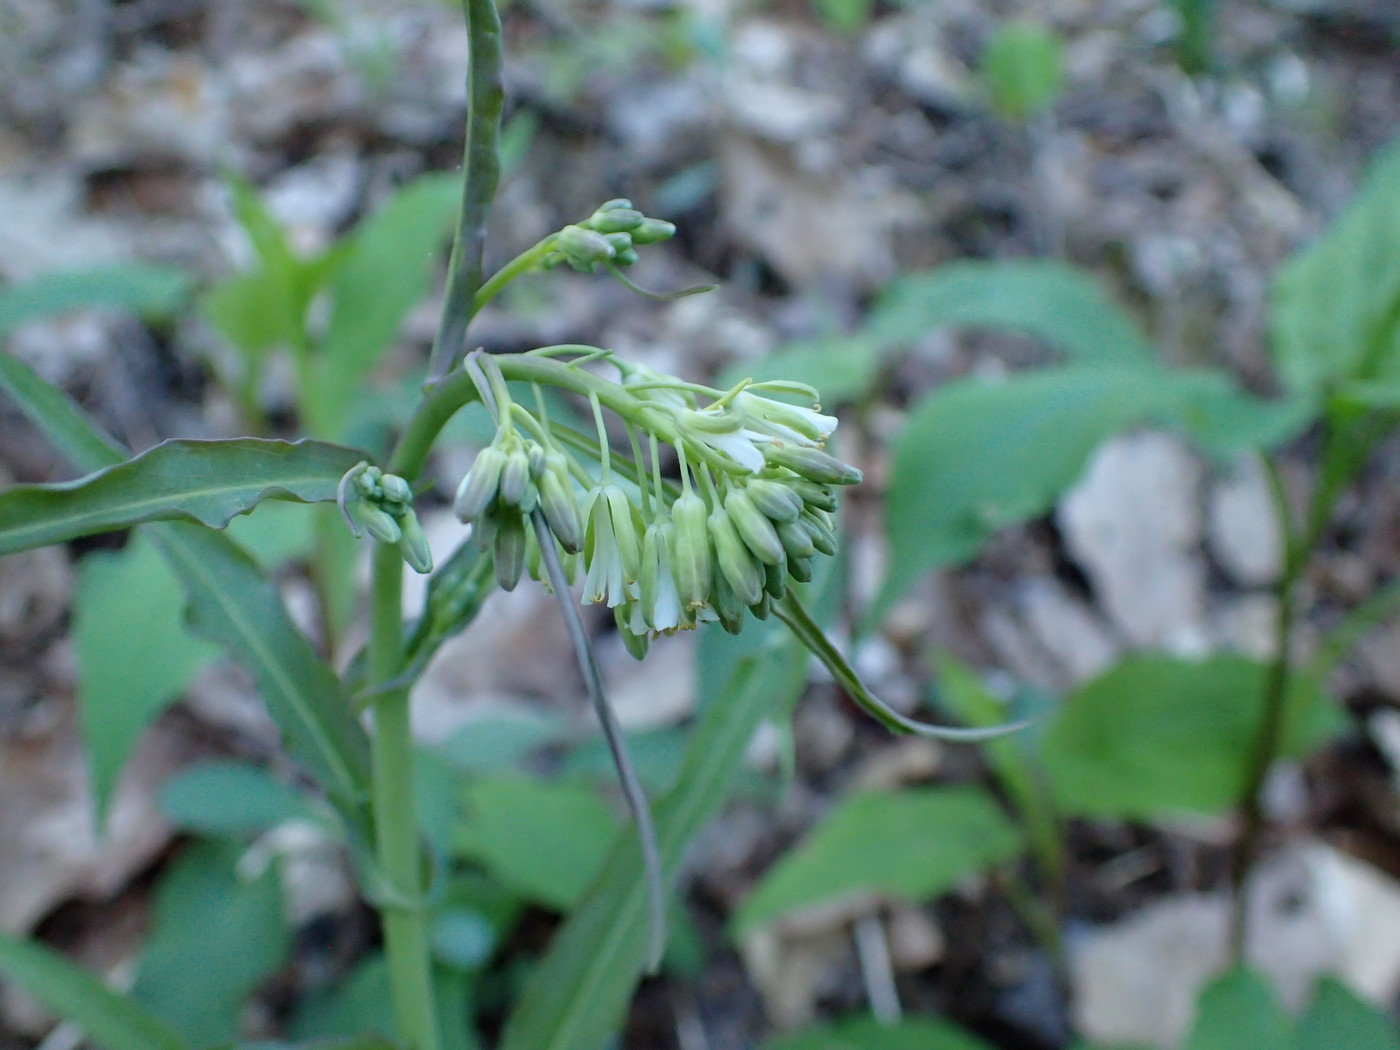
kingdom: Plantae
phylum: Tracheophyta
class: Magnoliopsida
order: Brassicales
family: Brassicaceae
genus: Borodinia
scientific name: Borodinia laevigata
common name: Smooth rockcress
